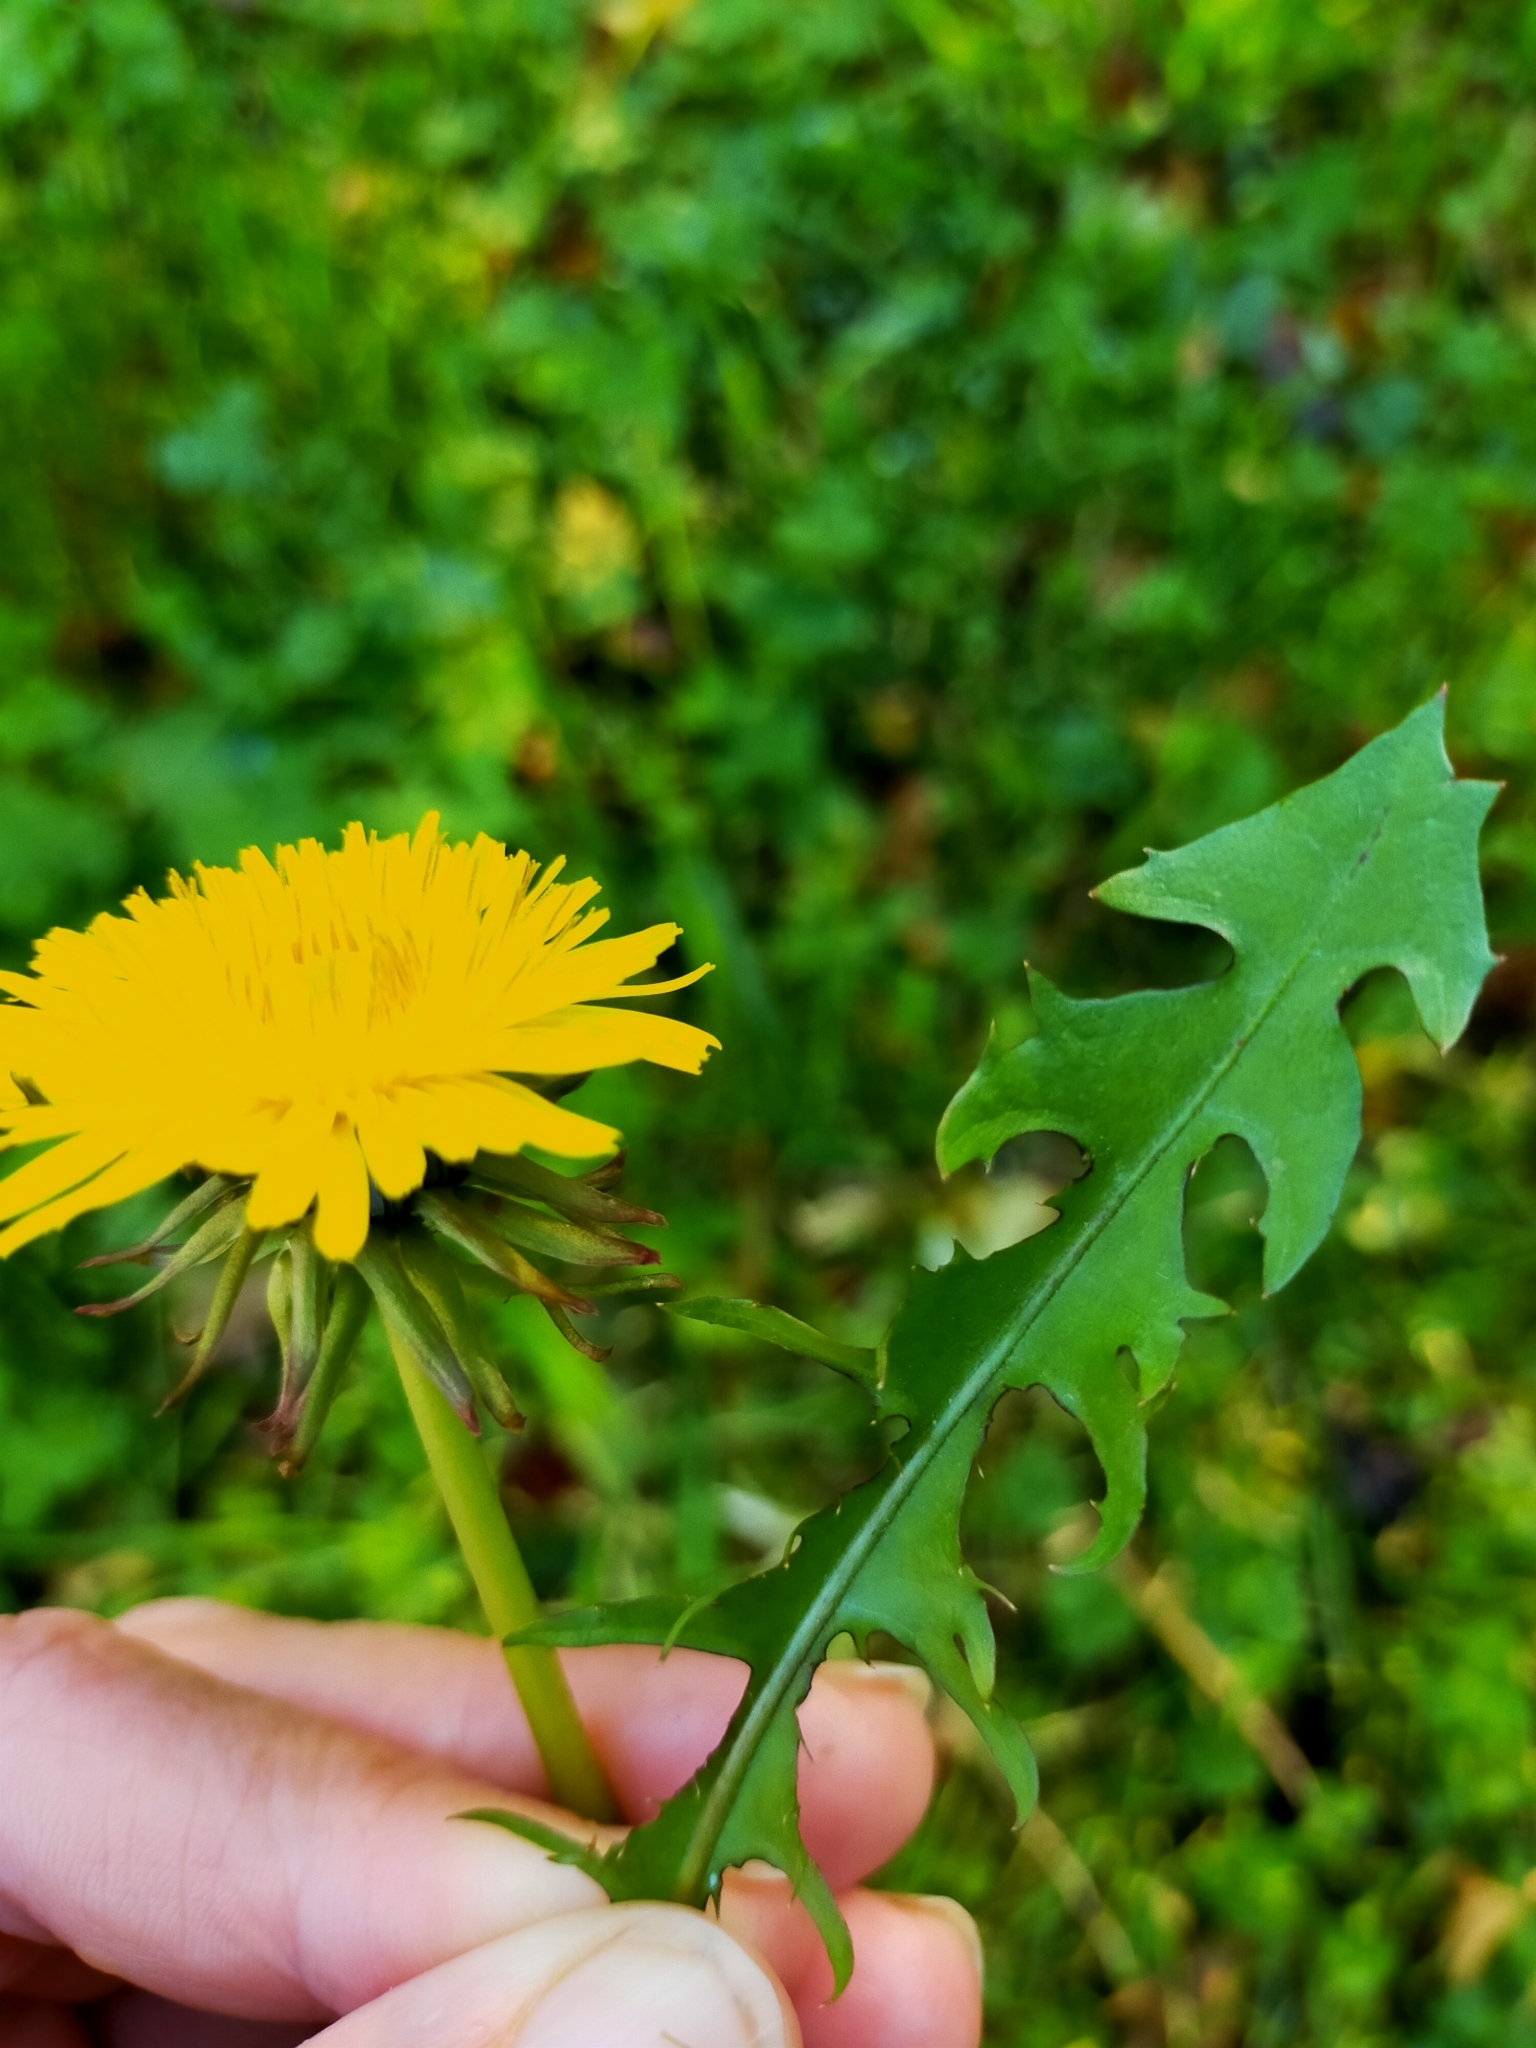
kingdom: Plantae
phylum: Tracheophyta
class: Magnoliopsida
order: Asterales
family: Asteraceae
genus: Taraxacum
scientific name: Taraxacum officinale
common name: Common dandelion
